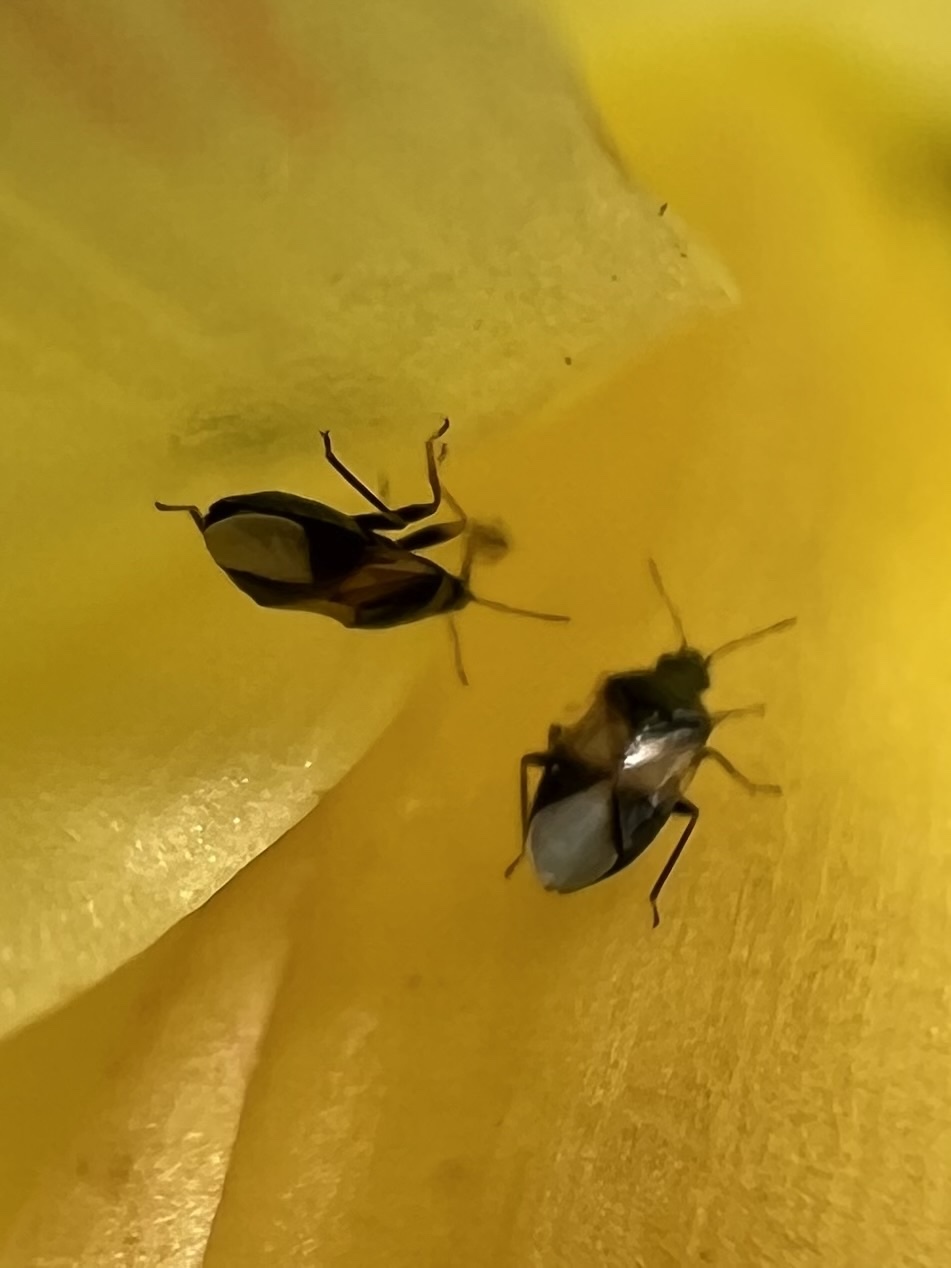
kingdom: Animalia
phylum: Arthropoda
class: Insecta
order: Hemiptera
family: Anthocoridae
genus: Orius
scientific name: Orius insidiosus
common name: Insidious flower bug
